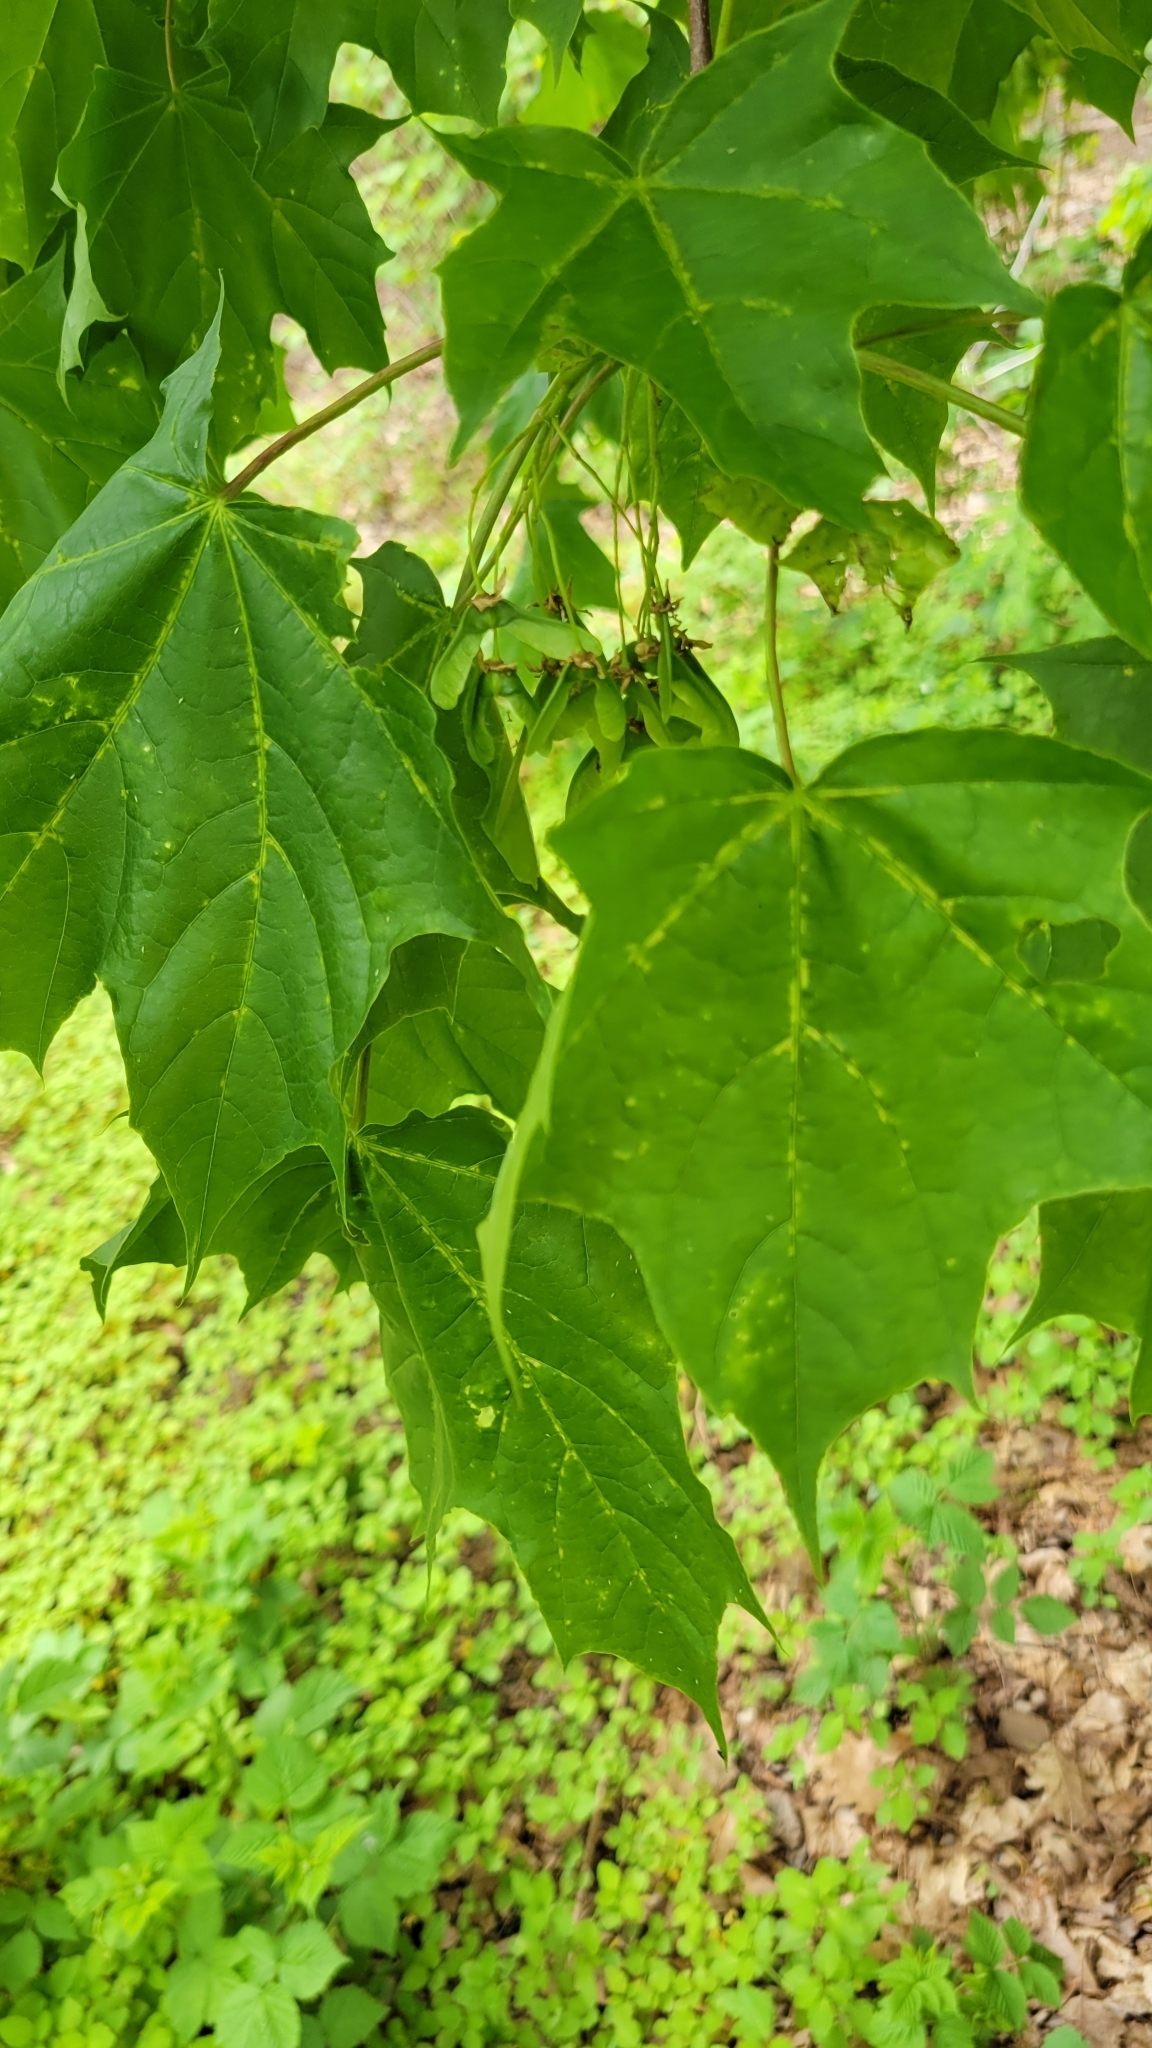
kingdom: Plantae
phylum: Tracheophyta
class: Magnoliopsida
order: Sapindales
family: Sapindaceae
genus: Acer
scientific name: Acer platanoides
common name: Norway maple
